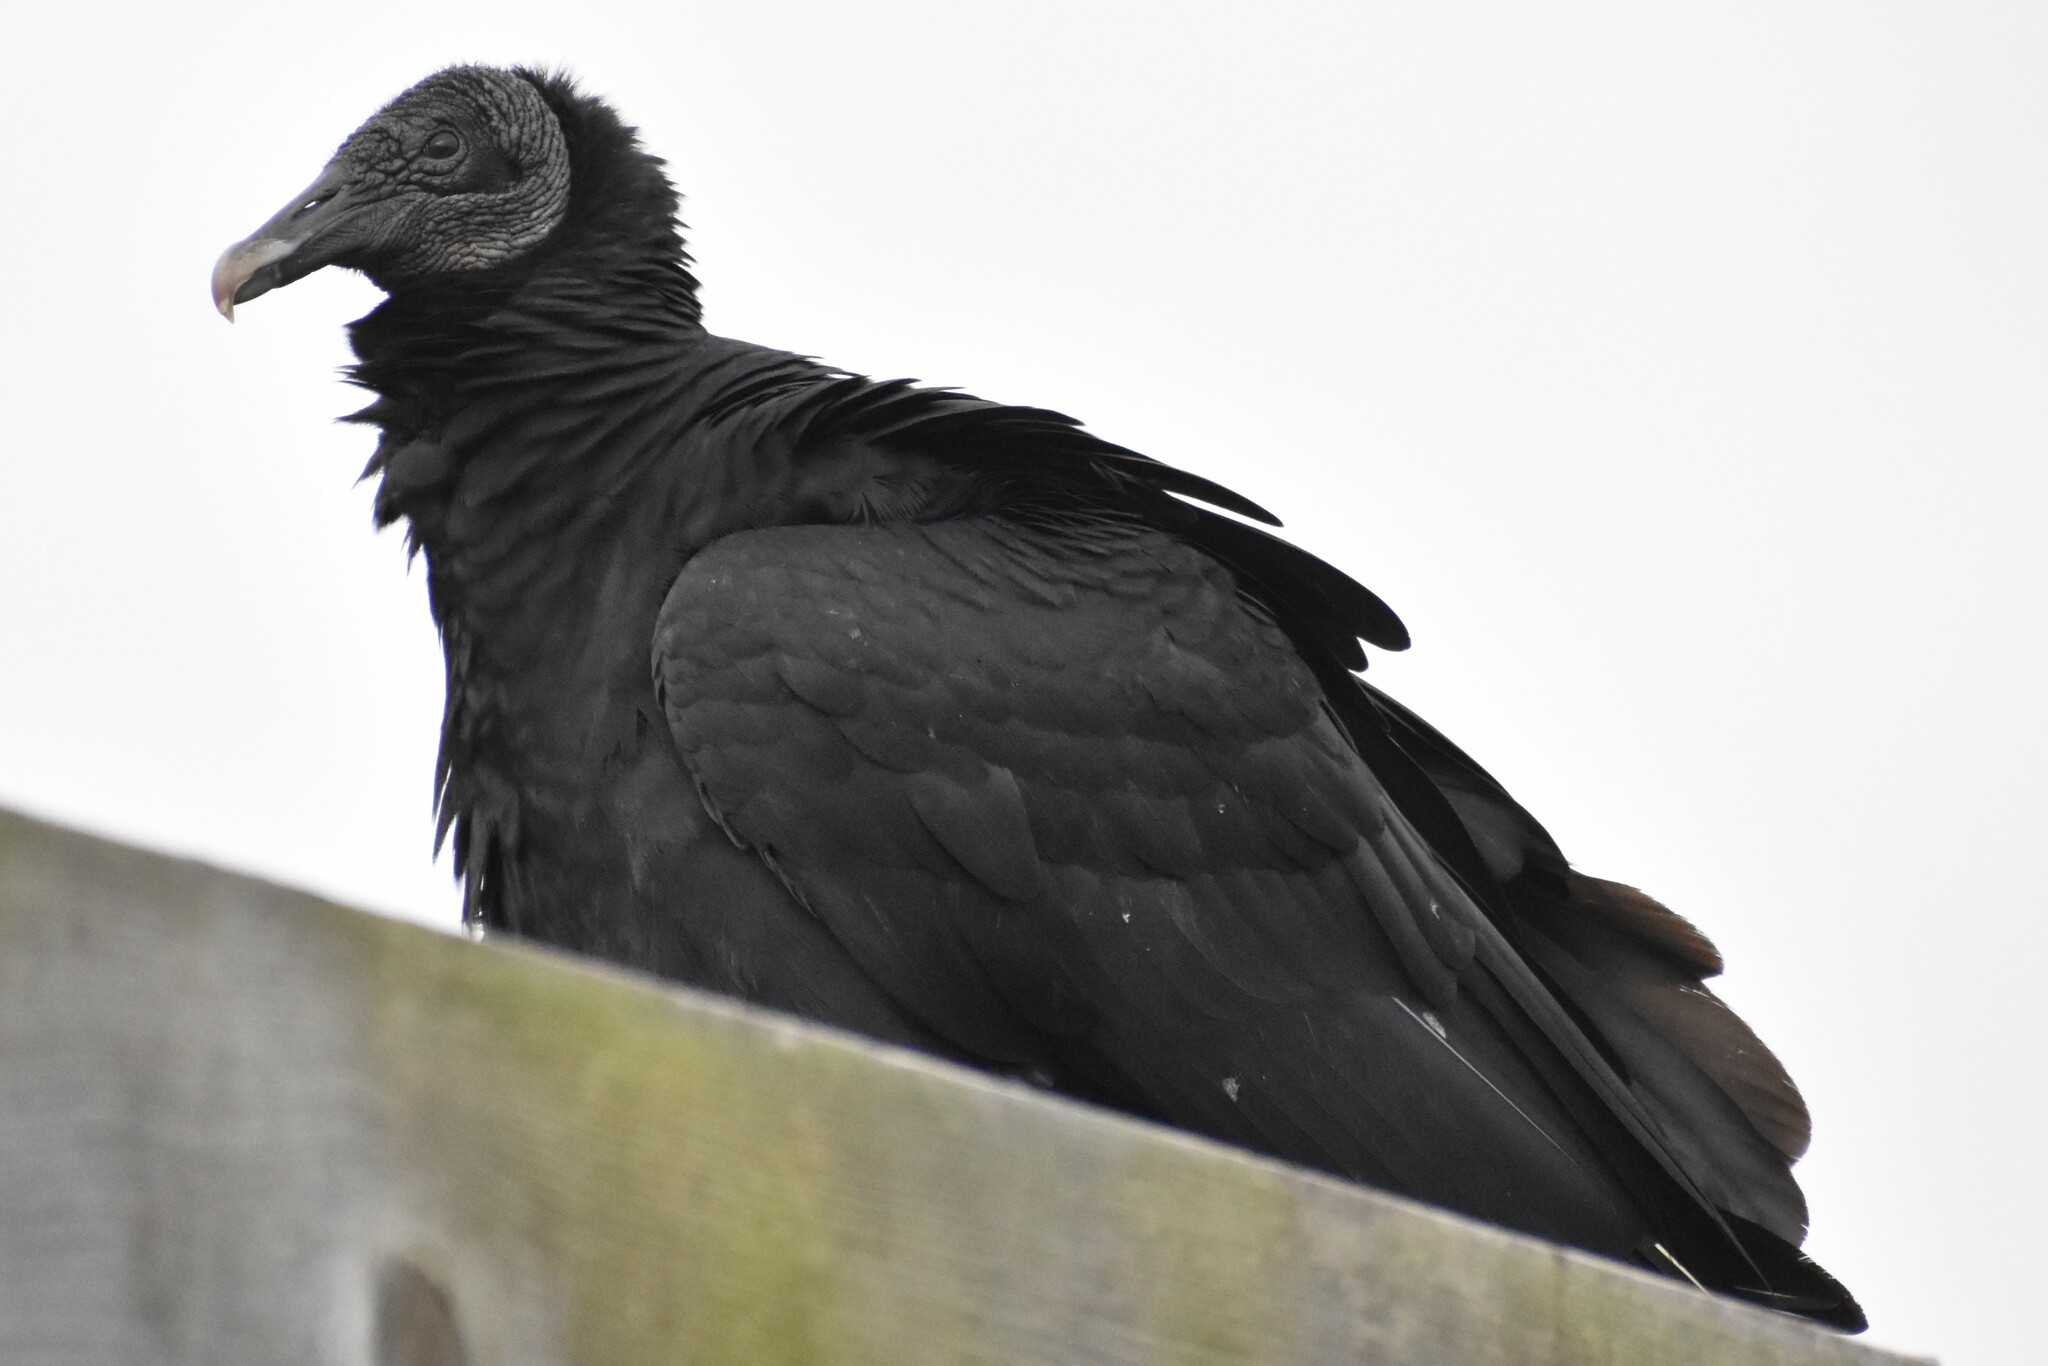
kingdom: Animalia
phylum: Chordata
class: Aves
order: Accipitriformes
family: Cathartidae
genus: Coragyps
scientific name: Coragyps atratus
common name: Black vulture
